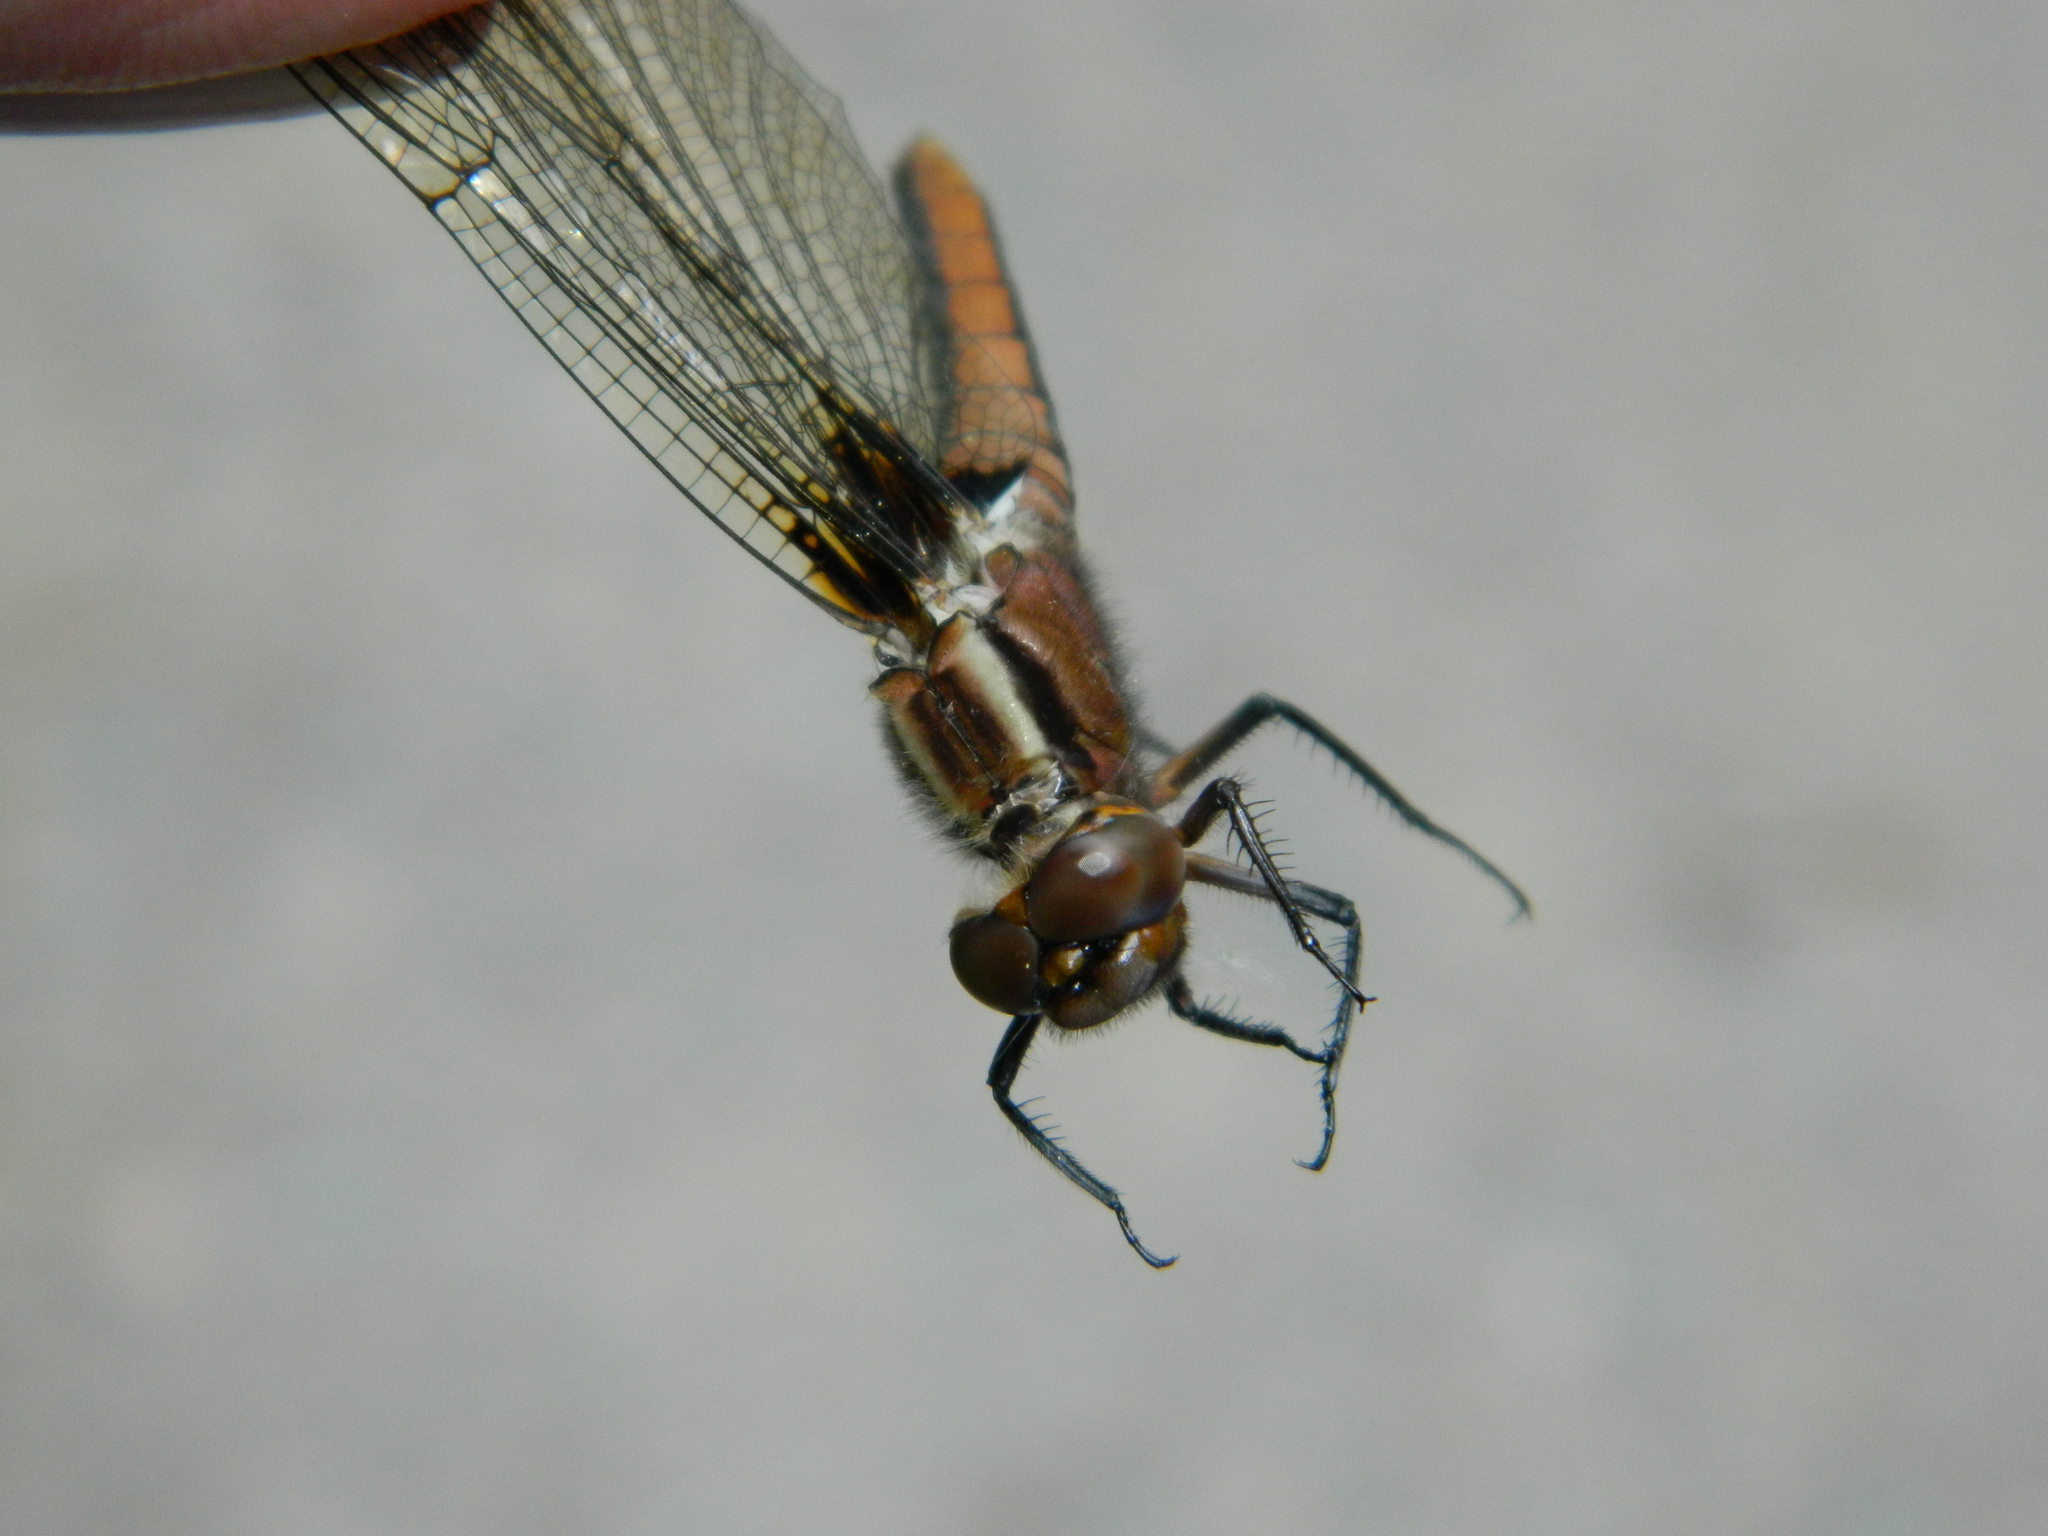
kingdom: Animalia
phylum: Arthropoda
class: Insecta
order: Odonata
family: Libellulidae
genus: Ladona
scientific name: Ladona julia
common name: Chalk-fronted corporal
